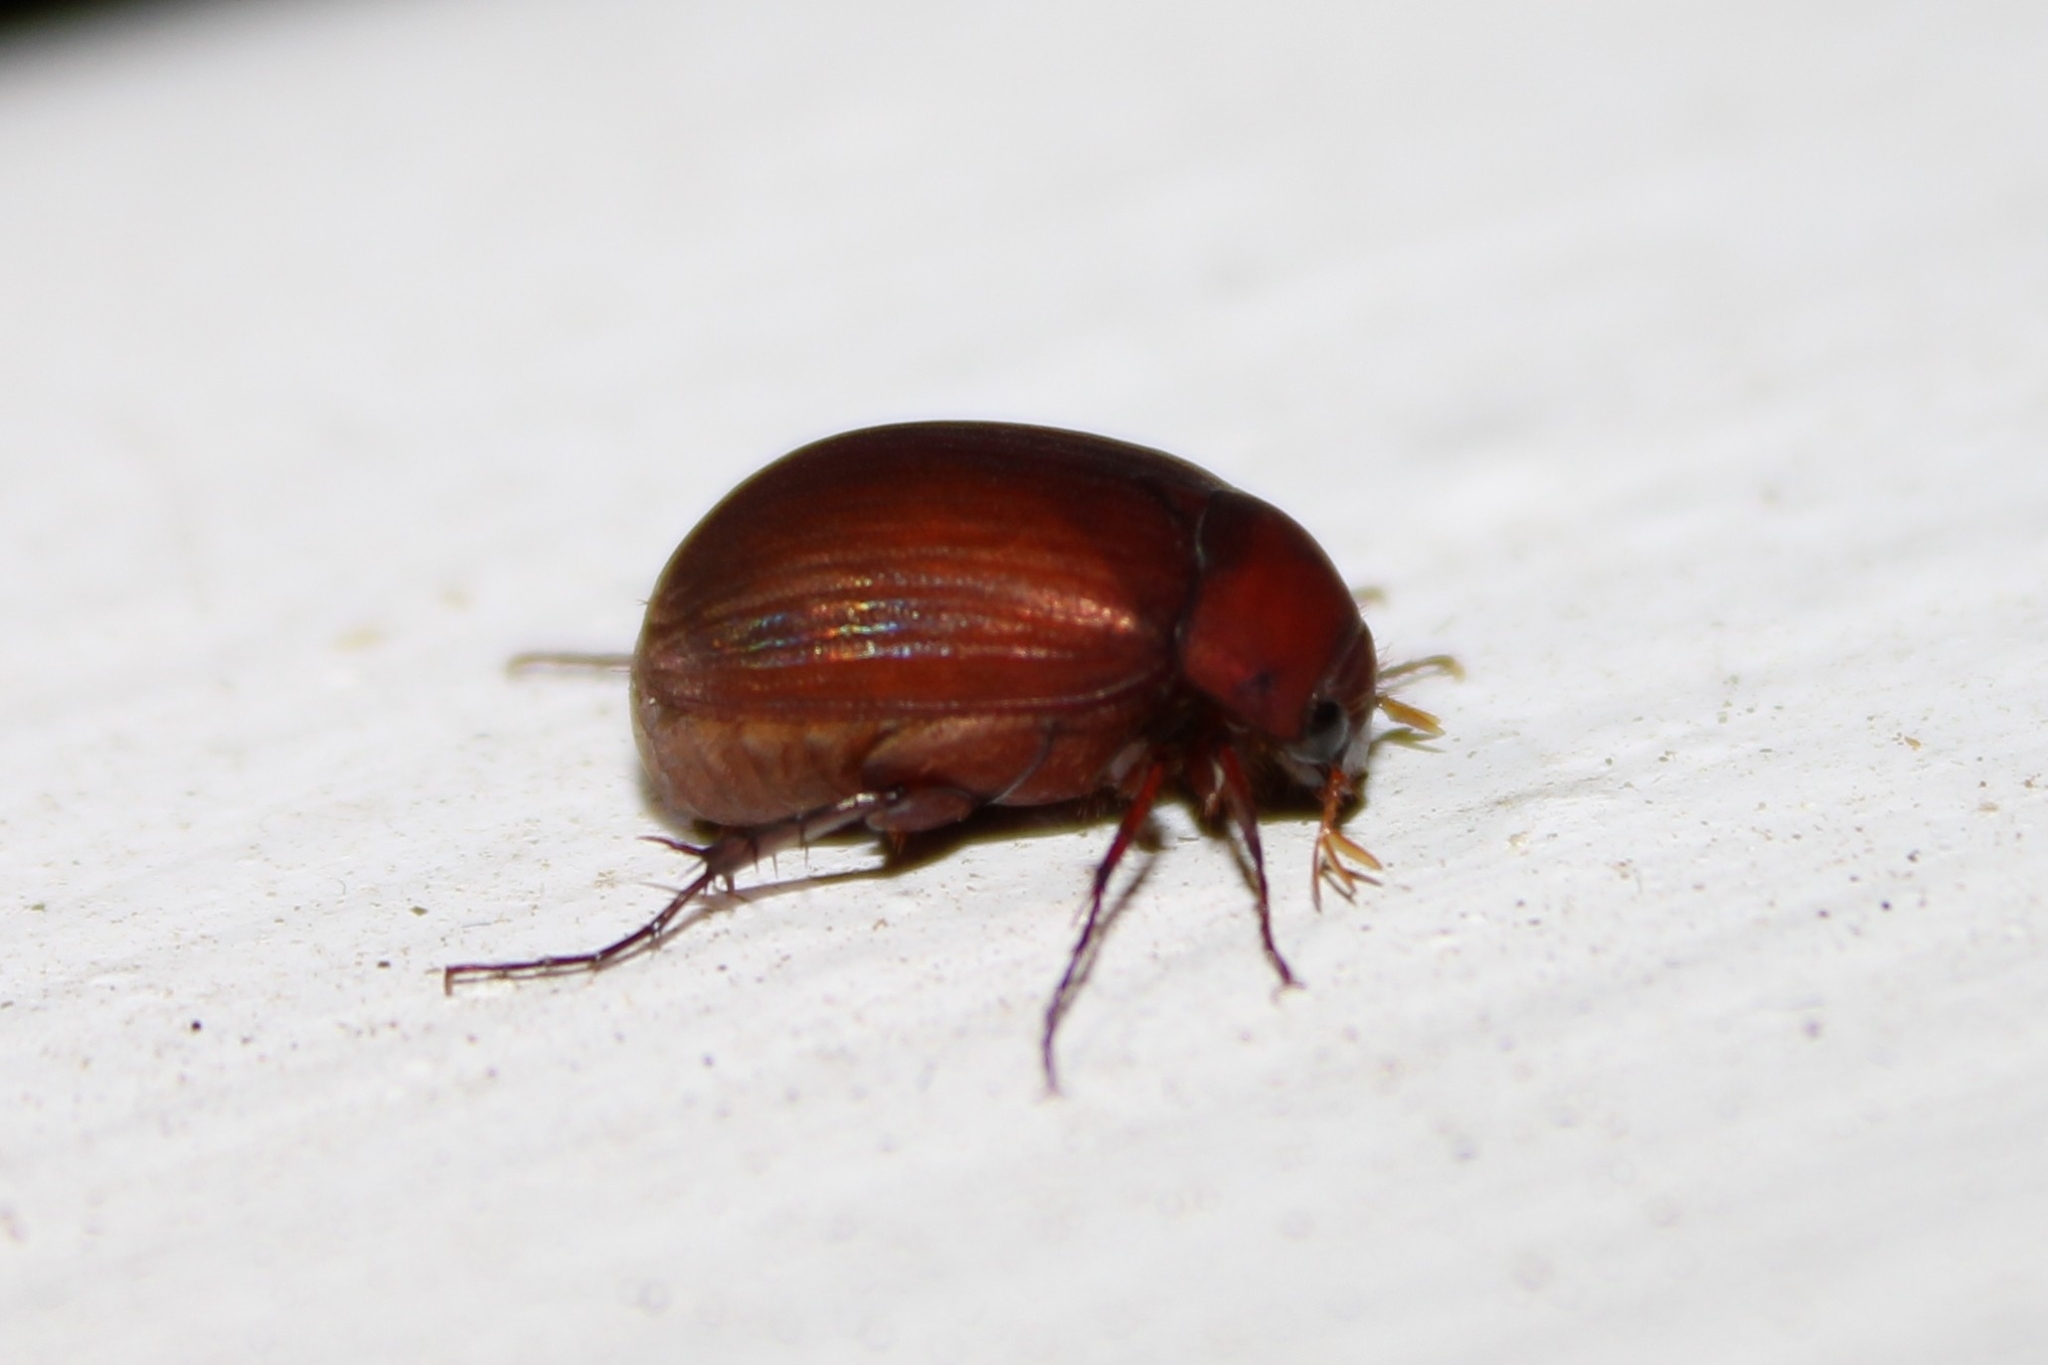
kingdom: Animalia
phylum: Arthropoda
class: Insecta
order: Coleoptera
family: Scarabaeidae
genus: Maladera
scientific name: Maladera formosae
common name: Asiatic garden beetle
